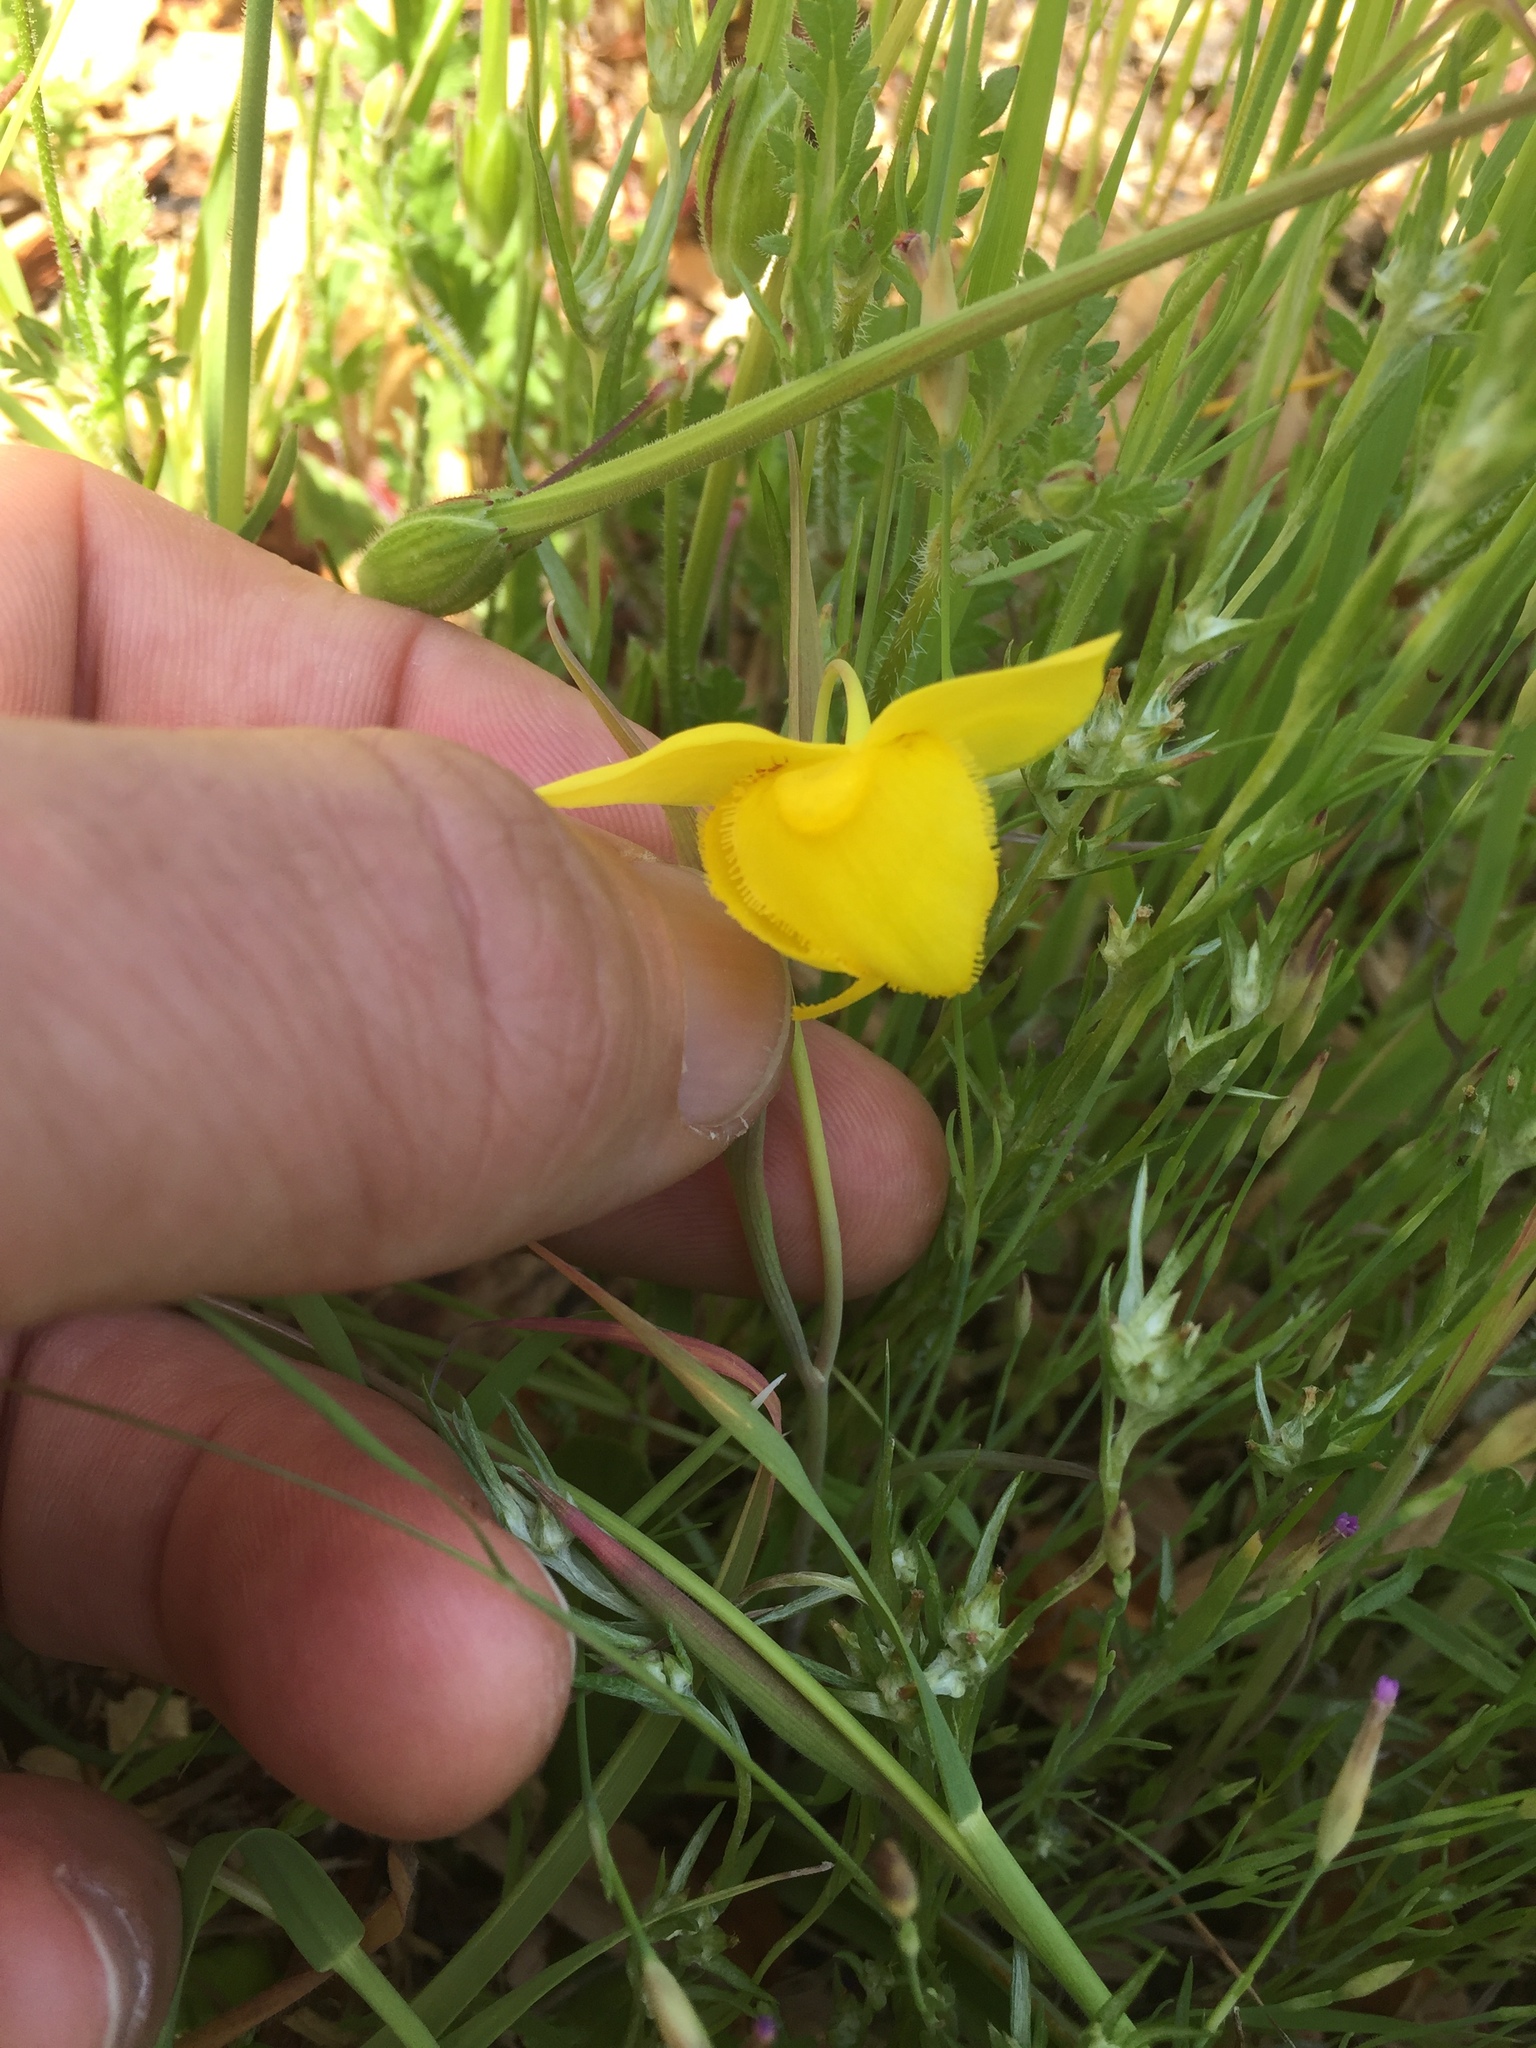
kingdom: Plantae
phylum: Tracheophyta
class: Liliopsida
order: Liliales
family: Liliaceae
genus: Calochortus
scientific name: Calochortus amabilis
